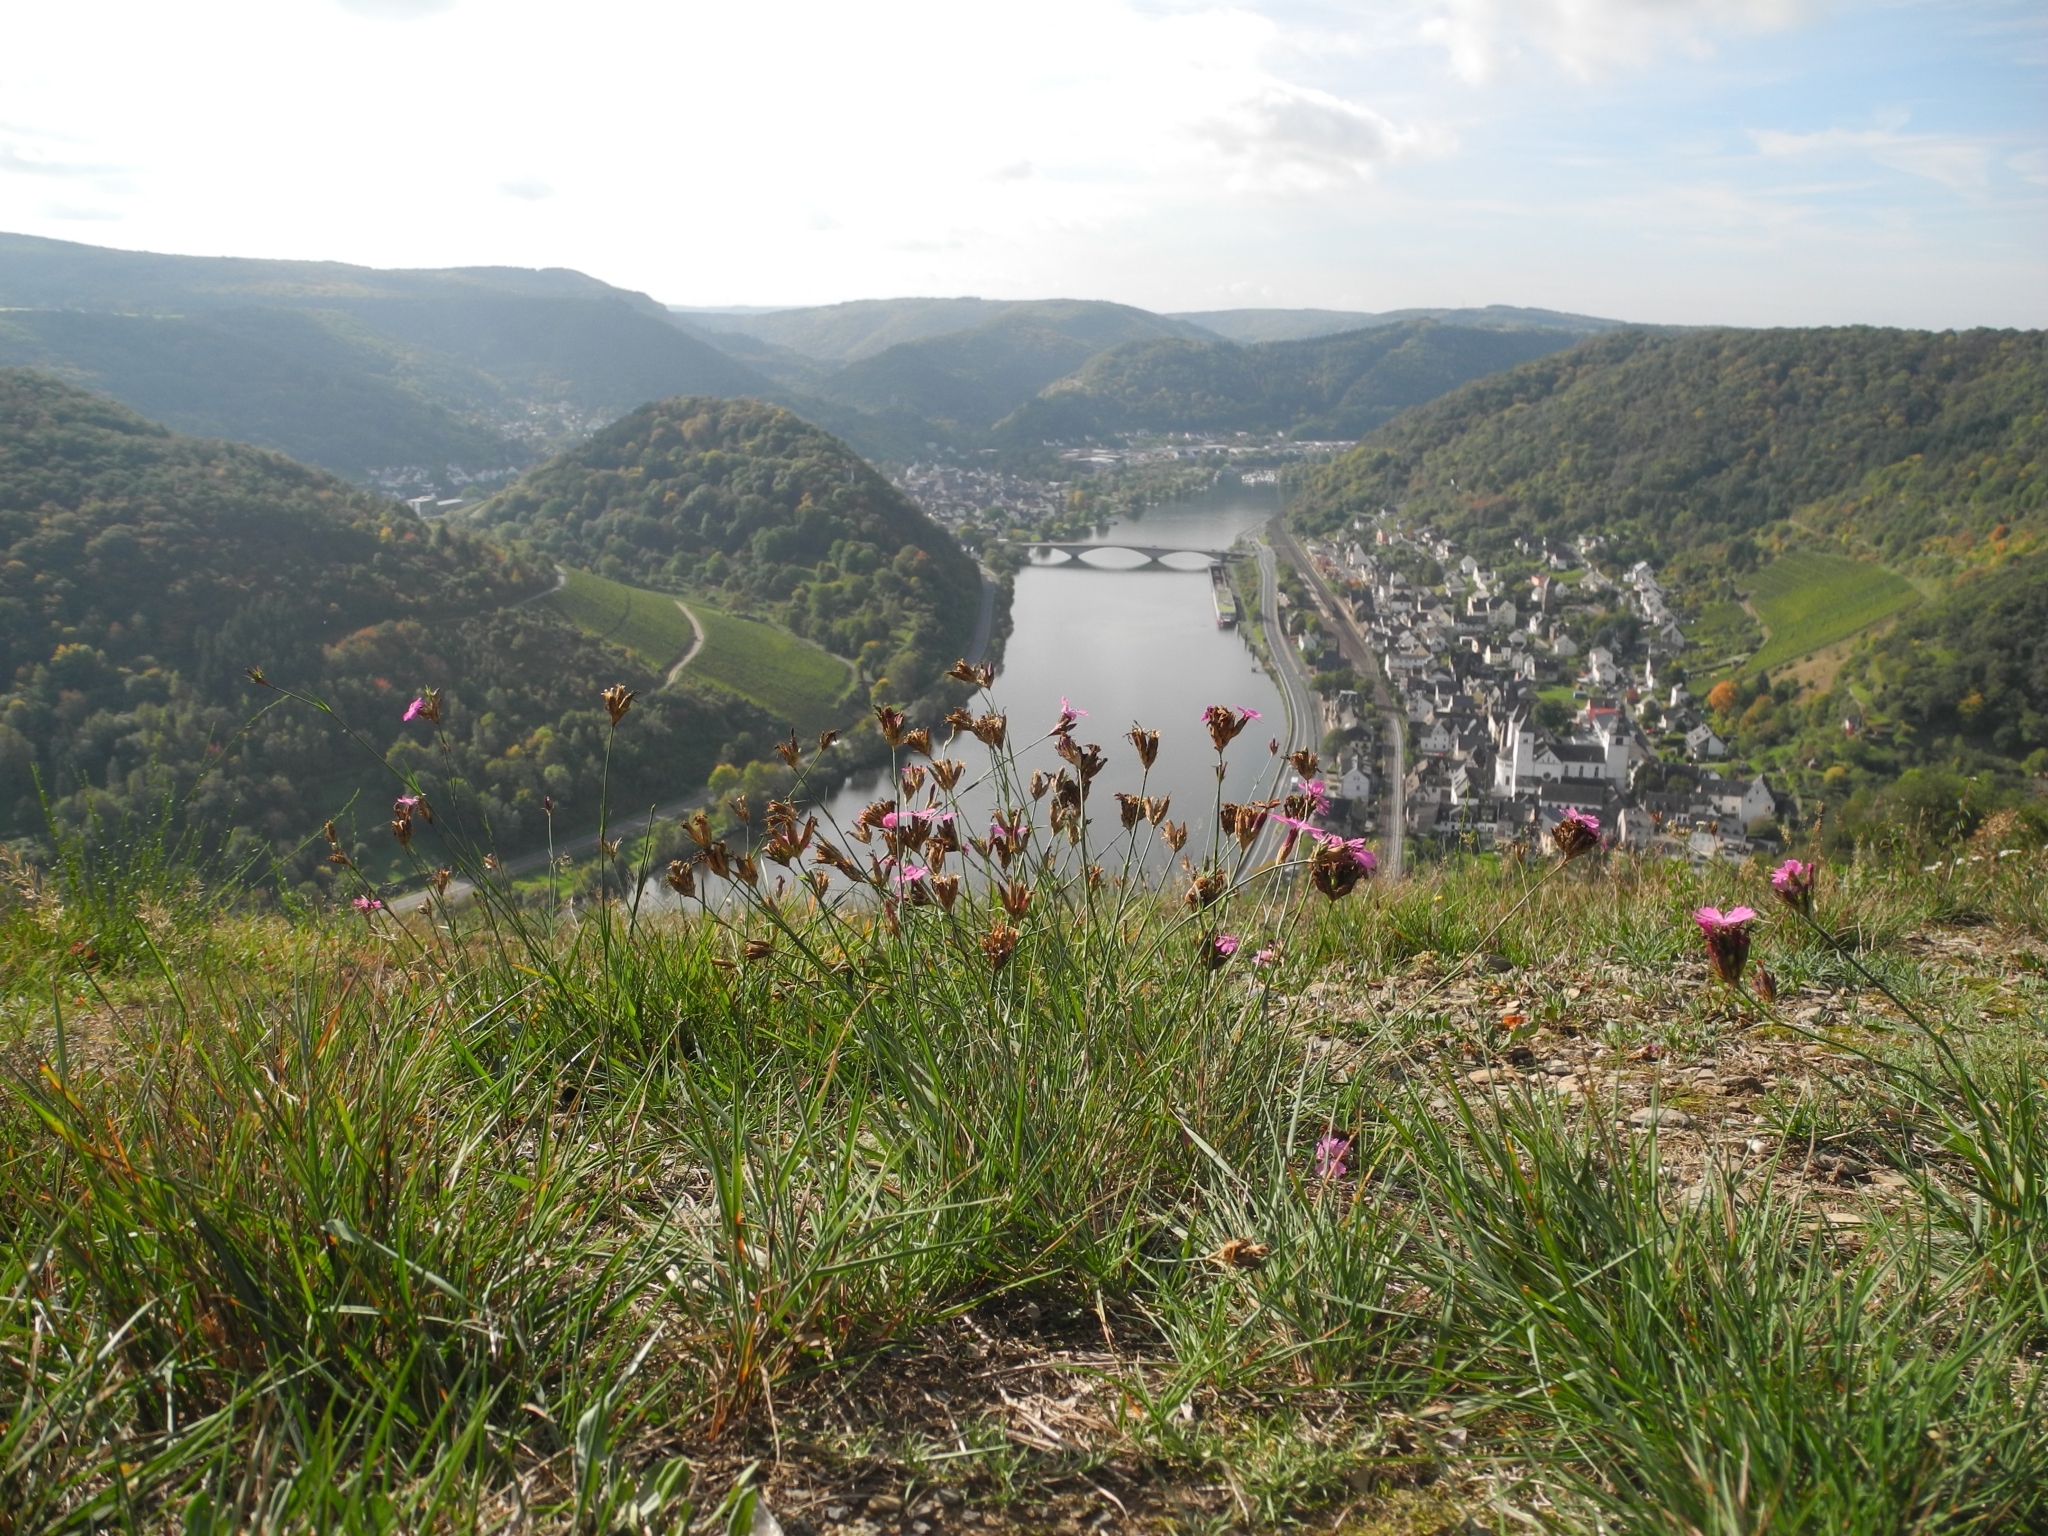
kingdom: Plantae
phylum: Tracheophyta
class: Magnoliopsida
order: Caryophyllales
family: Caryophyllaceae
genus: Dianthus
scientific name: Dianthus carthusianorum
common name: Carthusian pink
